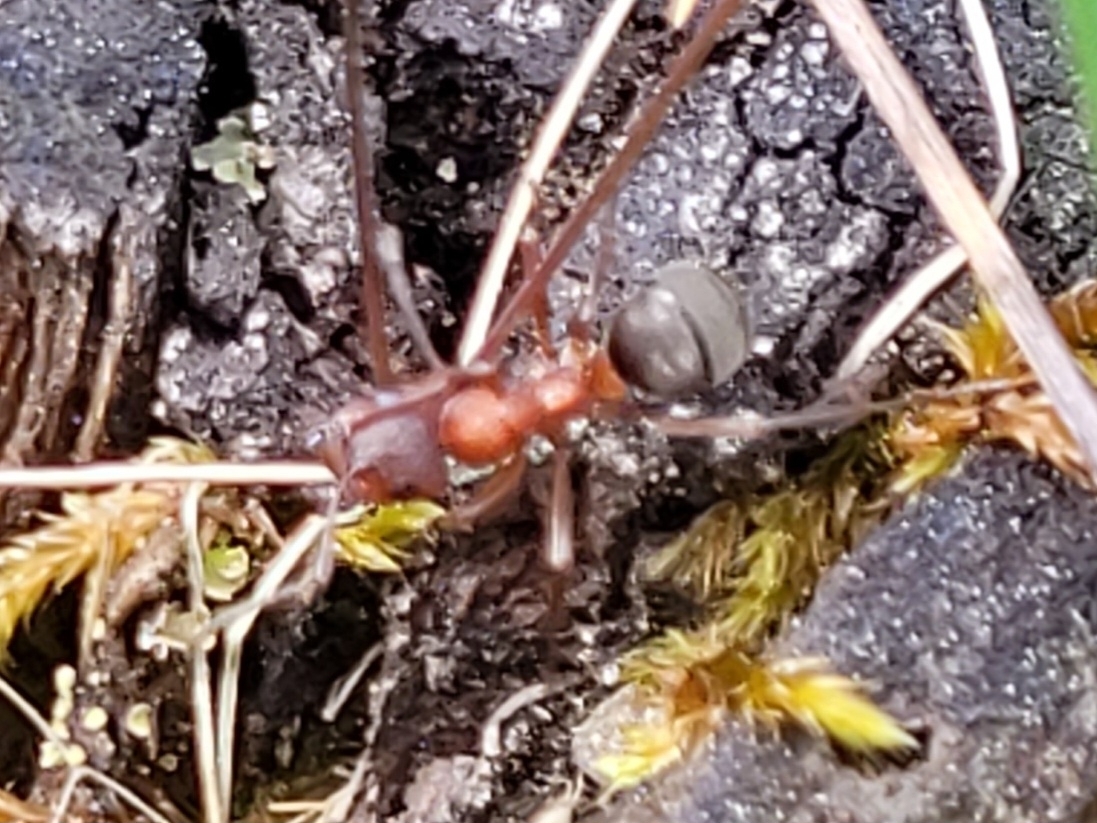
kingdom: Animalia
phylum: Arthropoda
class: Insecta
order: Hymenoptera
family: Formicidae
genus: Formica
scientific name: Formica sanguinea
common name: Blood-red ant
